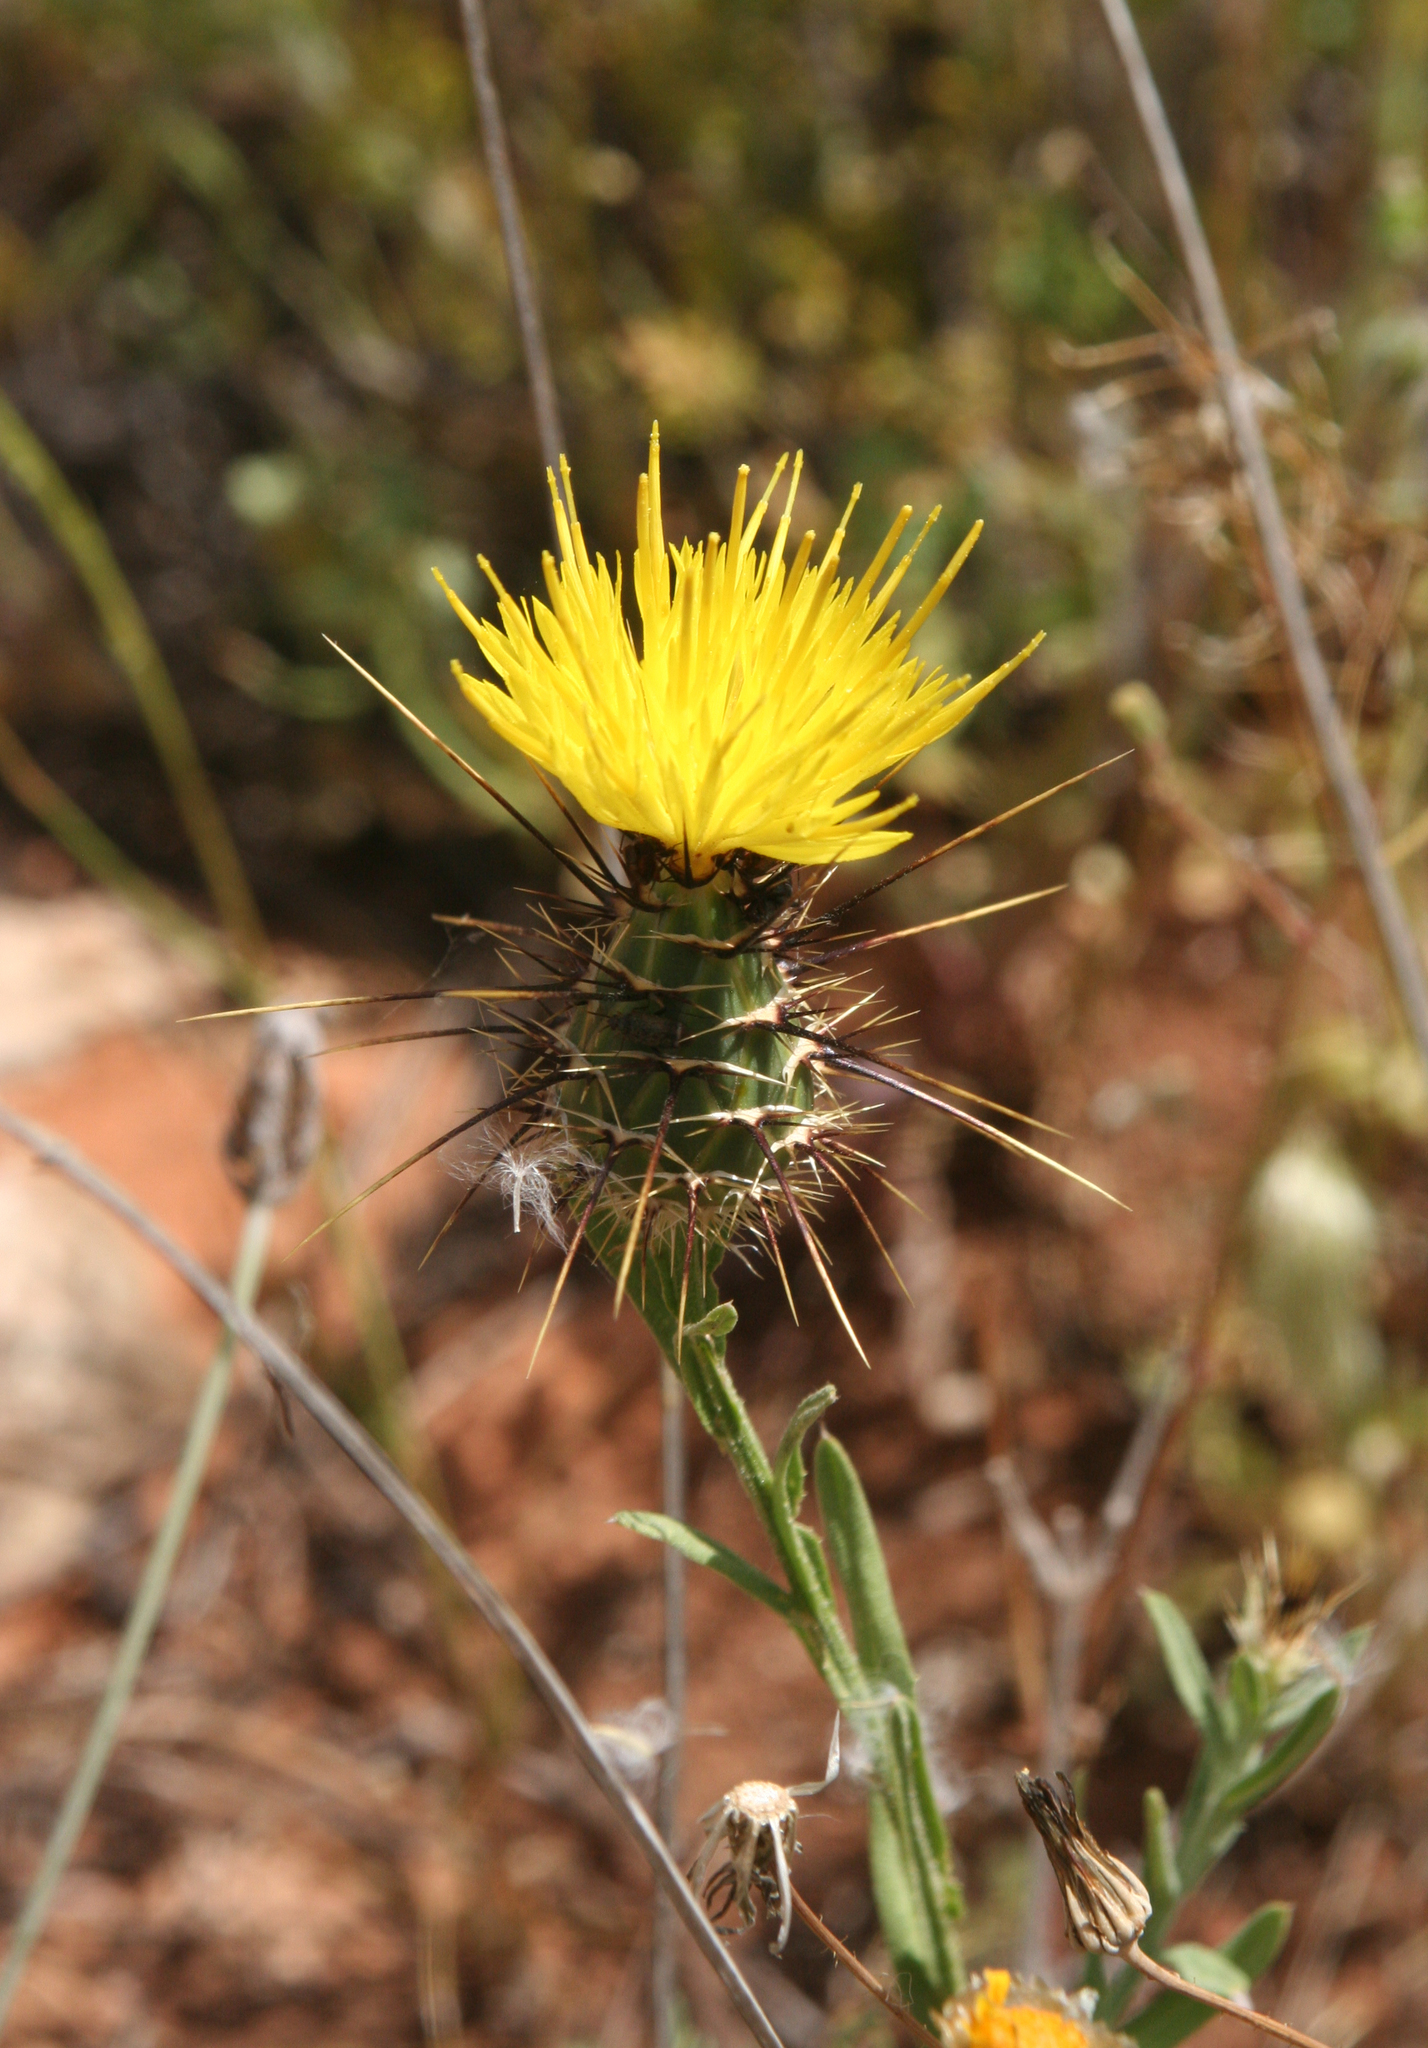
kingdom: Plantae
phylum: Tracheophyta
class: Magnoliopsida
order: Asterales
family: Asteraceae
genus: Centaurea
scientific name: Centaurea sulphurea
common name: Sulphur knapweed
